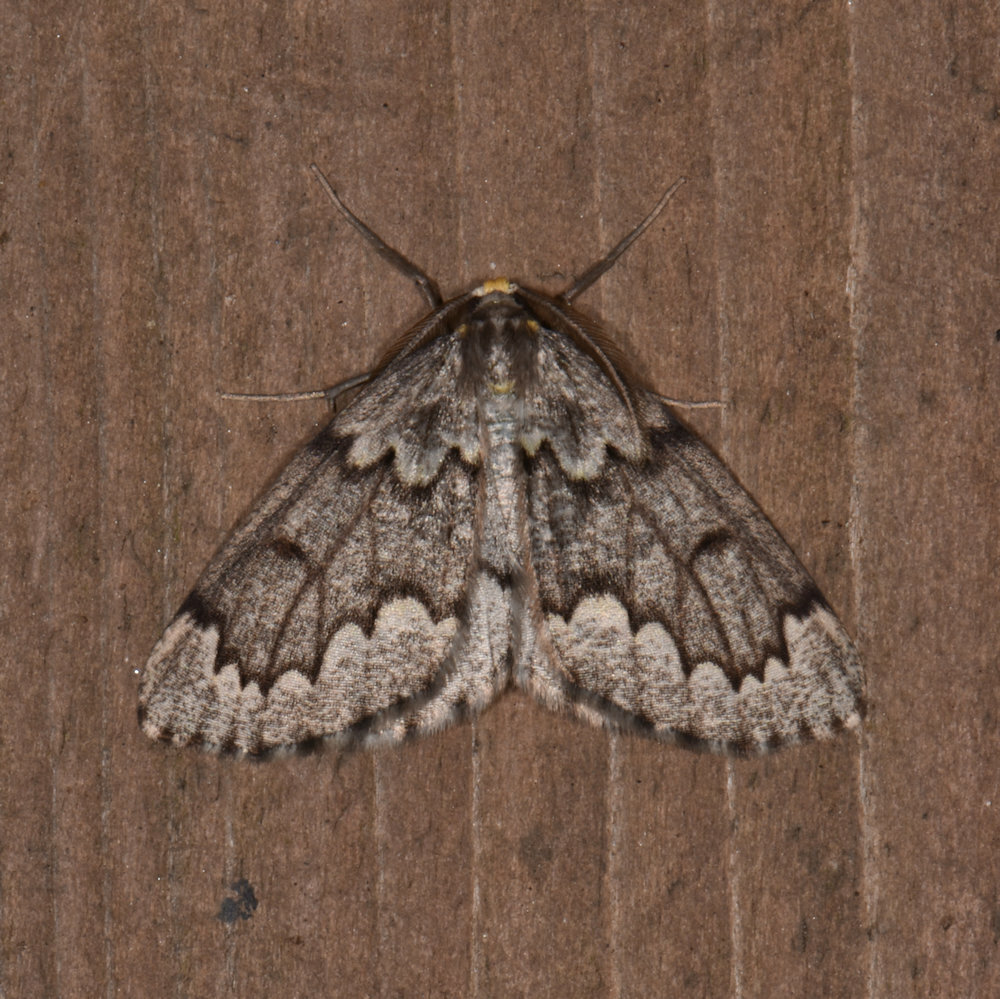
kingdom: Animalia
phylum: Arthropoda
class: Insecta
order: Lepidoptera
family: Geometridae
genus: Nepytia
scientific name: Nepytia canosaria
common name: False hemlock looper
